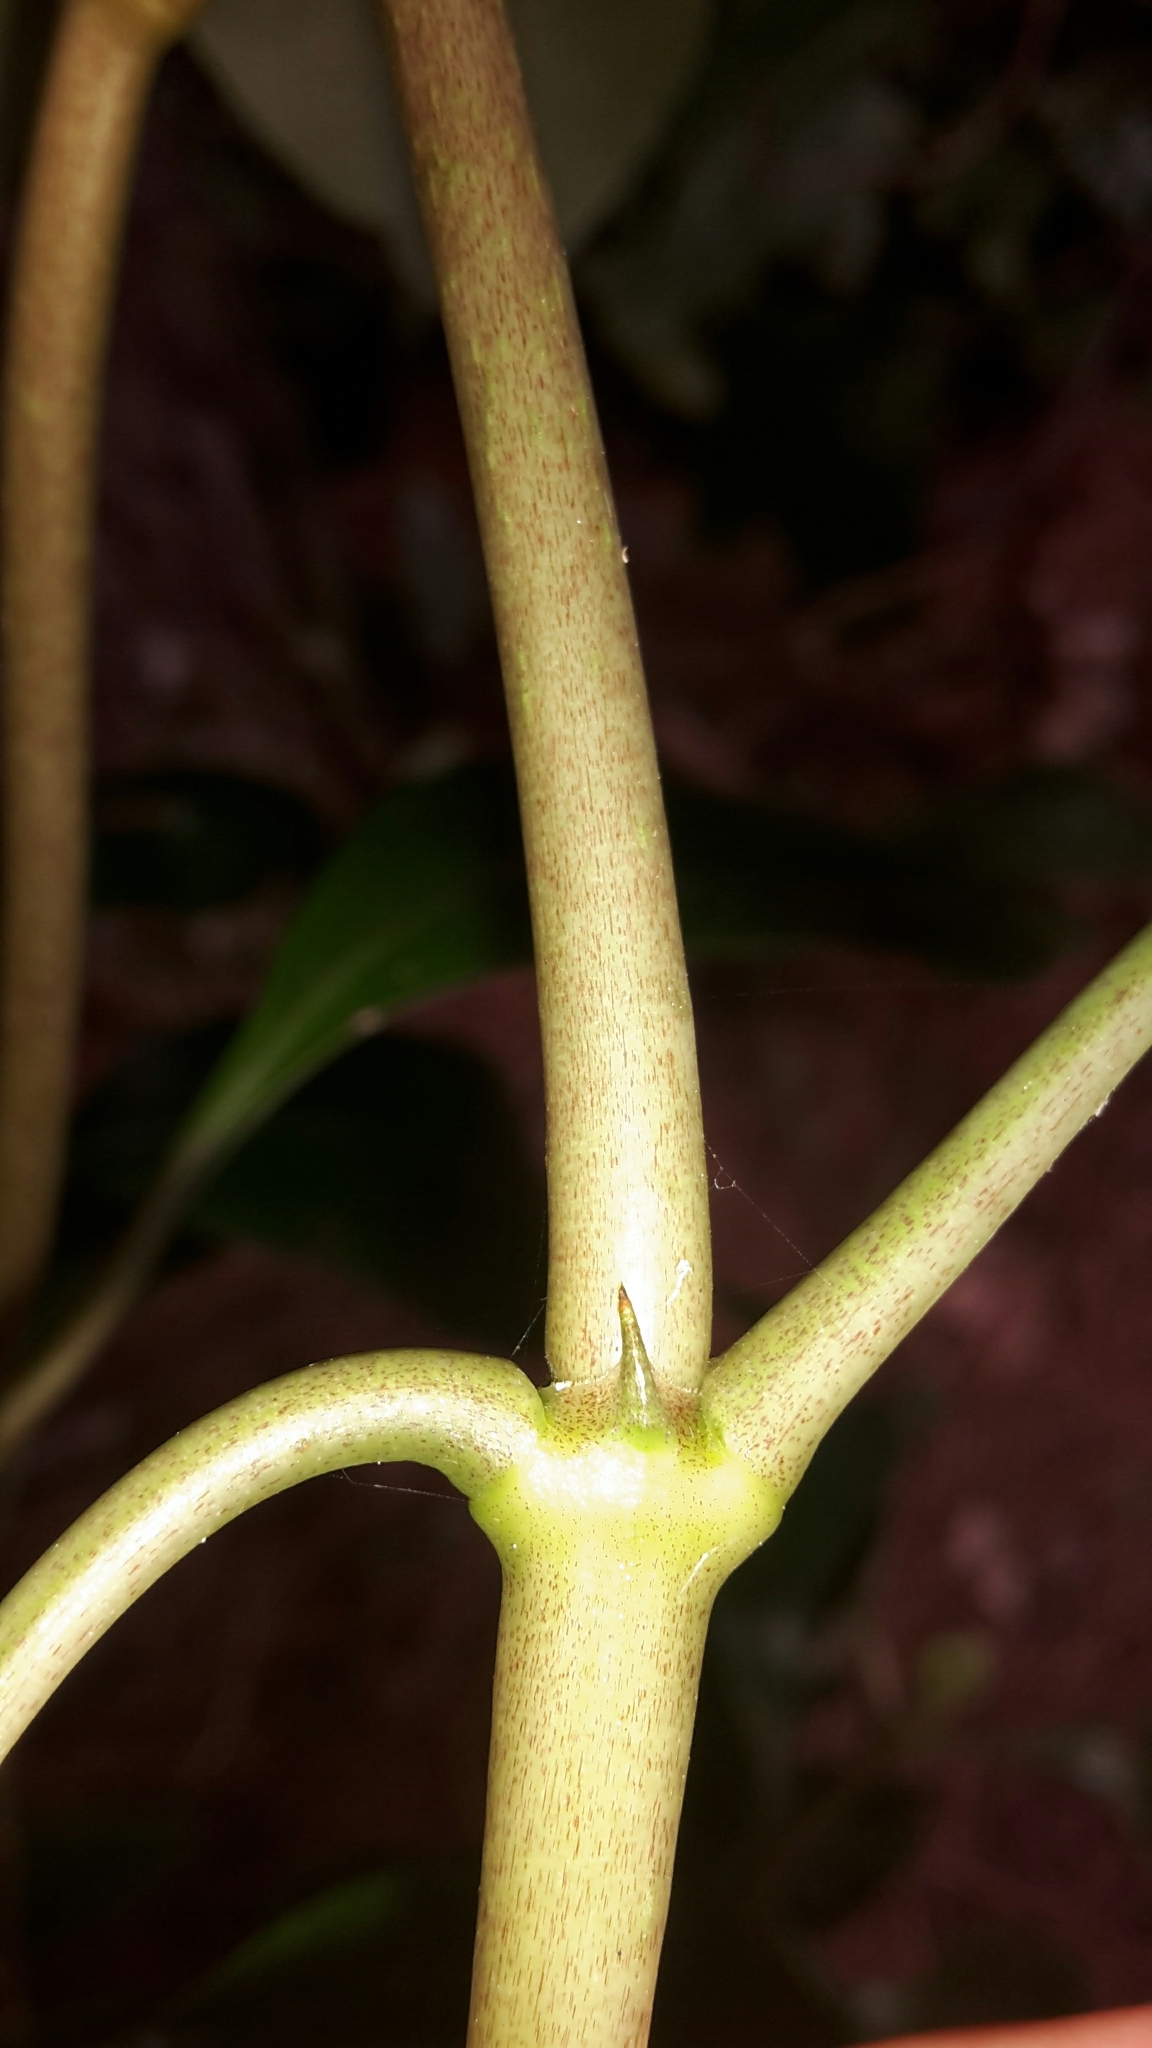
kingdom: Plantae
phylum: Tracheophyta
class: Magnoliopsida
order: Gentianales
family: Rubiaceae
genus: Coprosma
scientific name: Coprosma lucida
